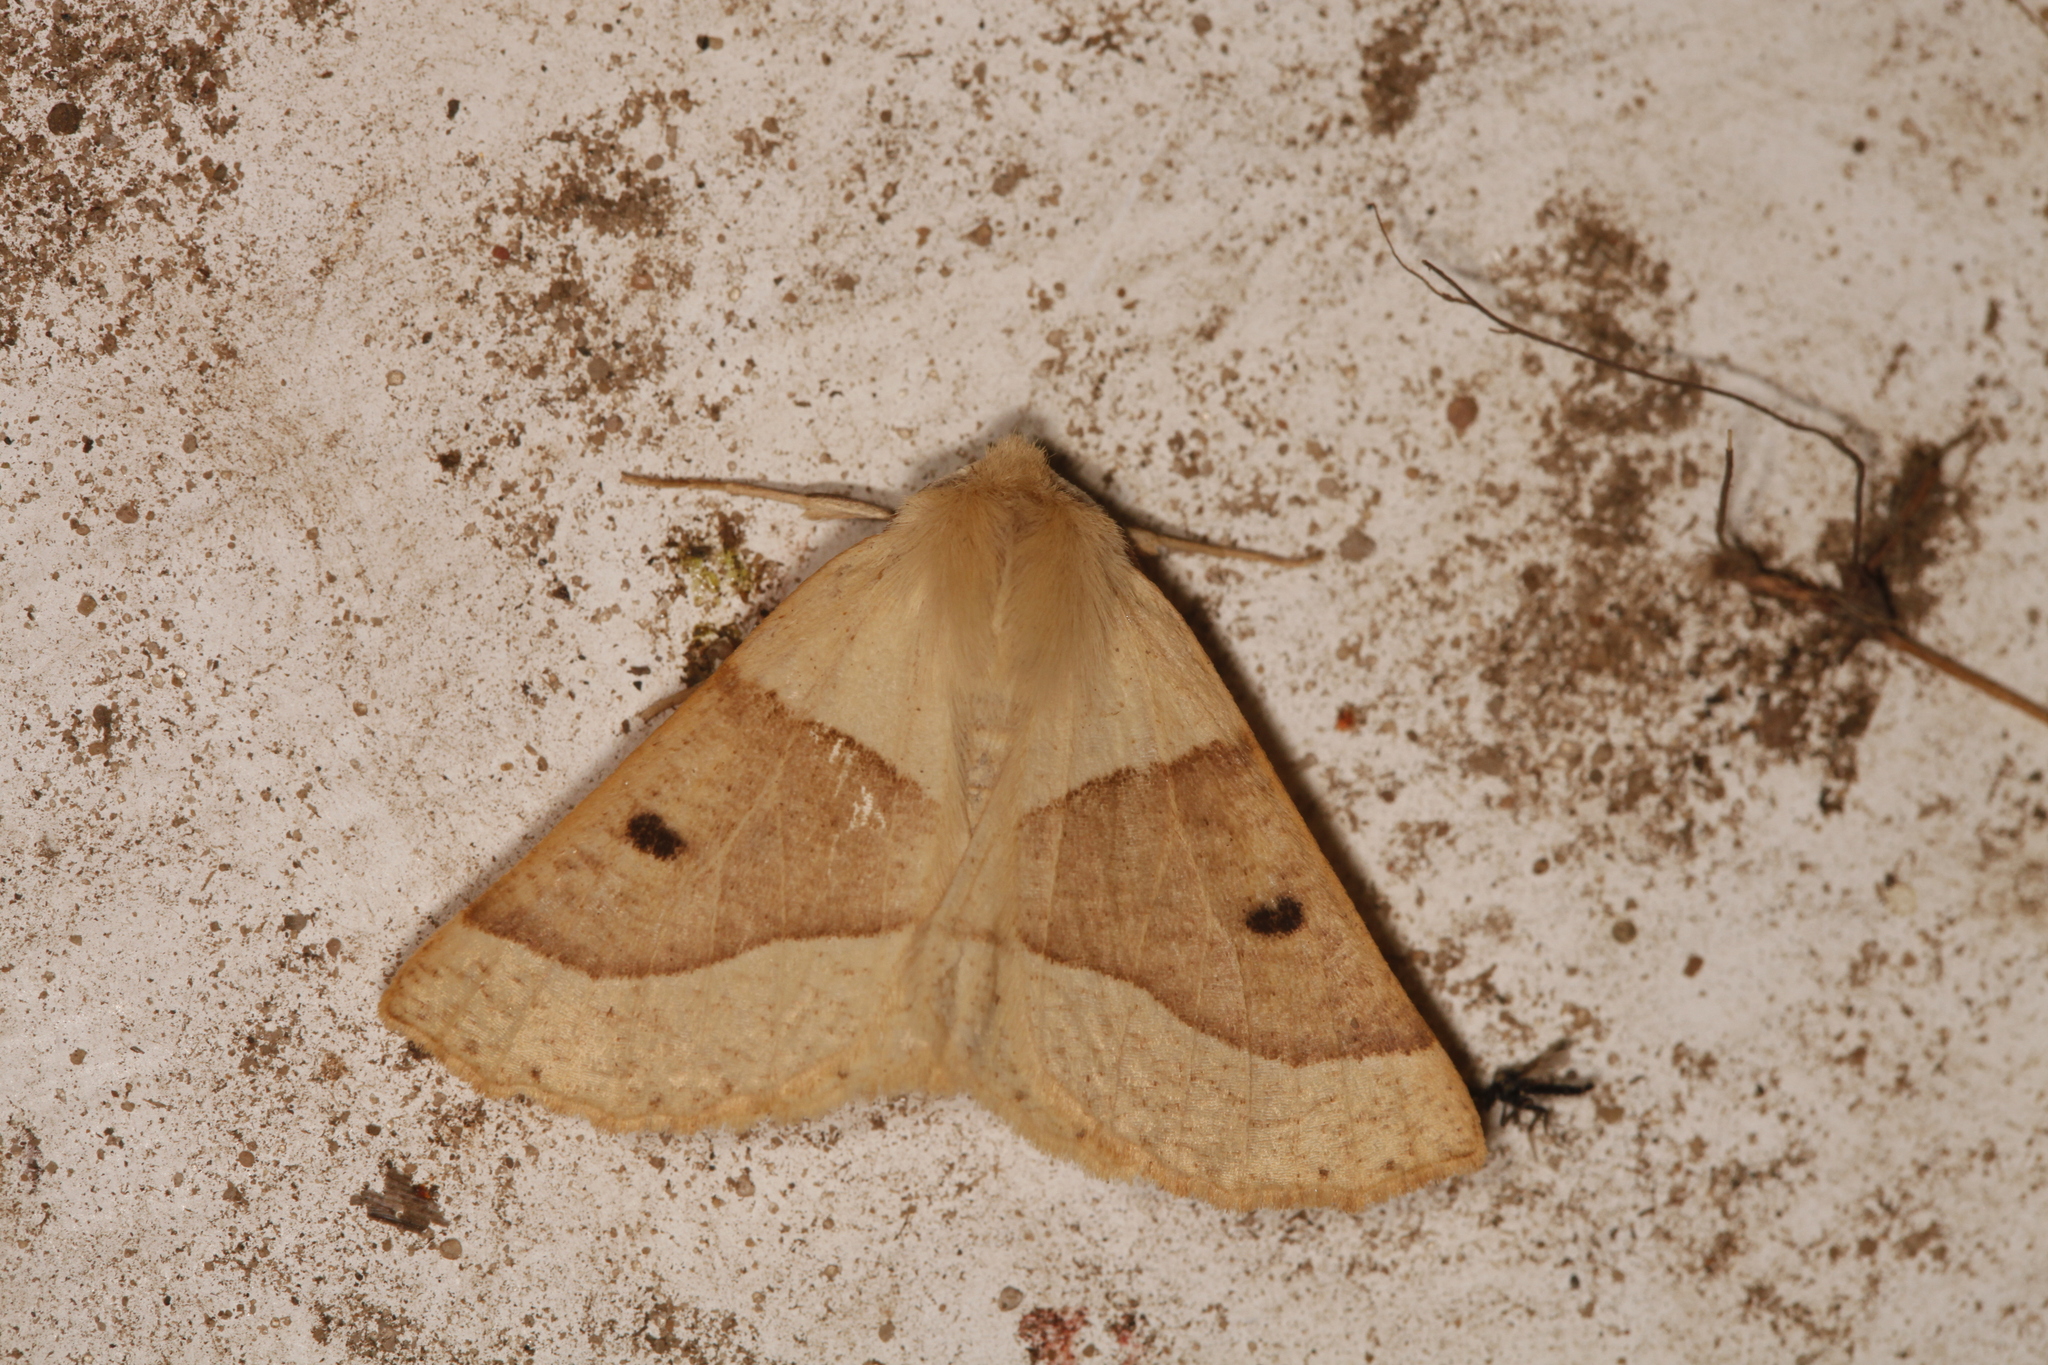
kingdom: Animalia
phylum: Arthropoda
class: Insecta
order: Lepidoptera
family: Geometridae
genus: Crocallis
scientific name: Crocallis elinguaria
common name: Scalloped oak
